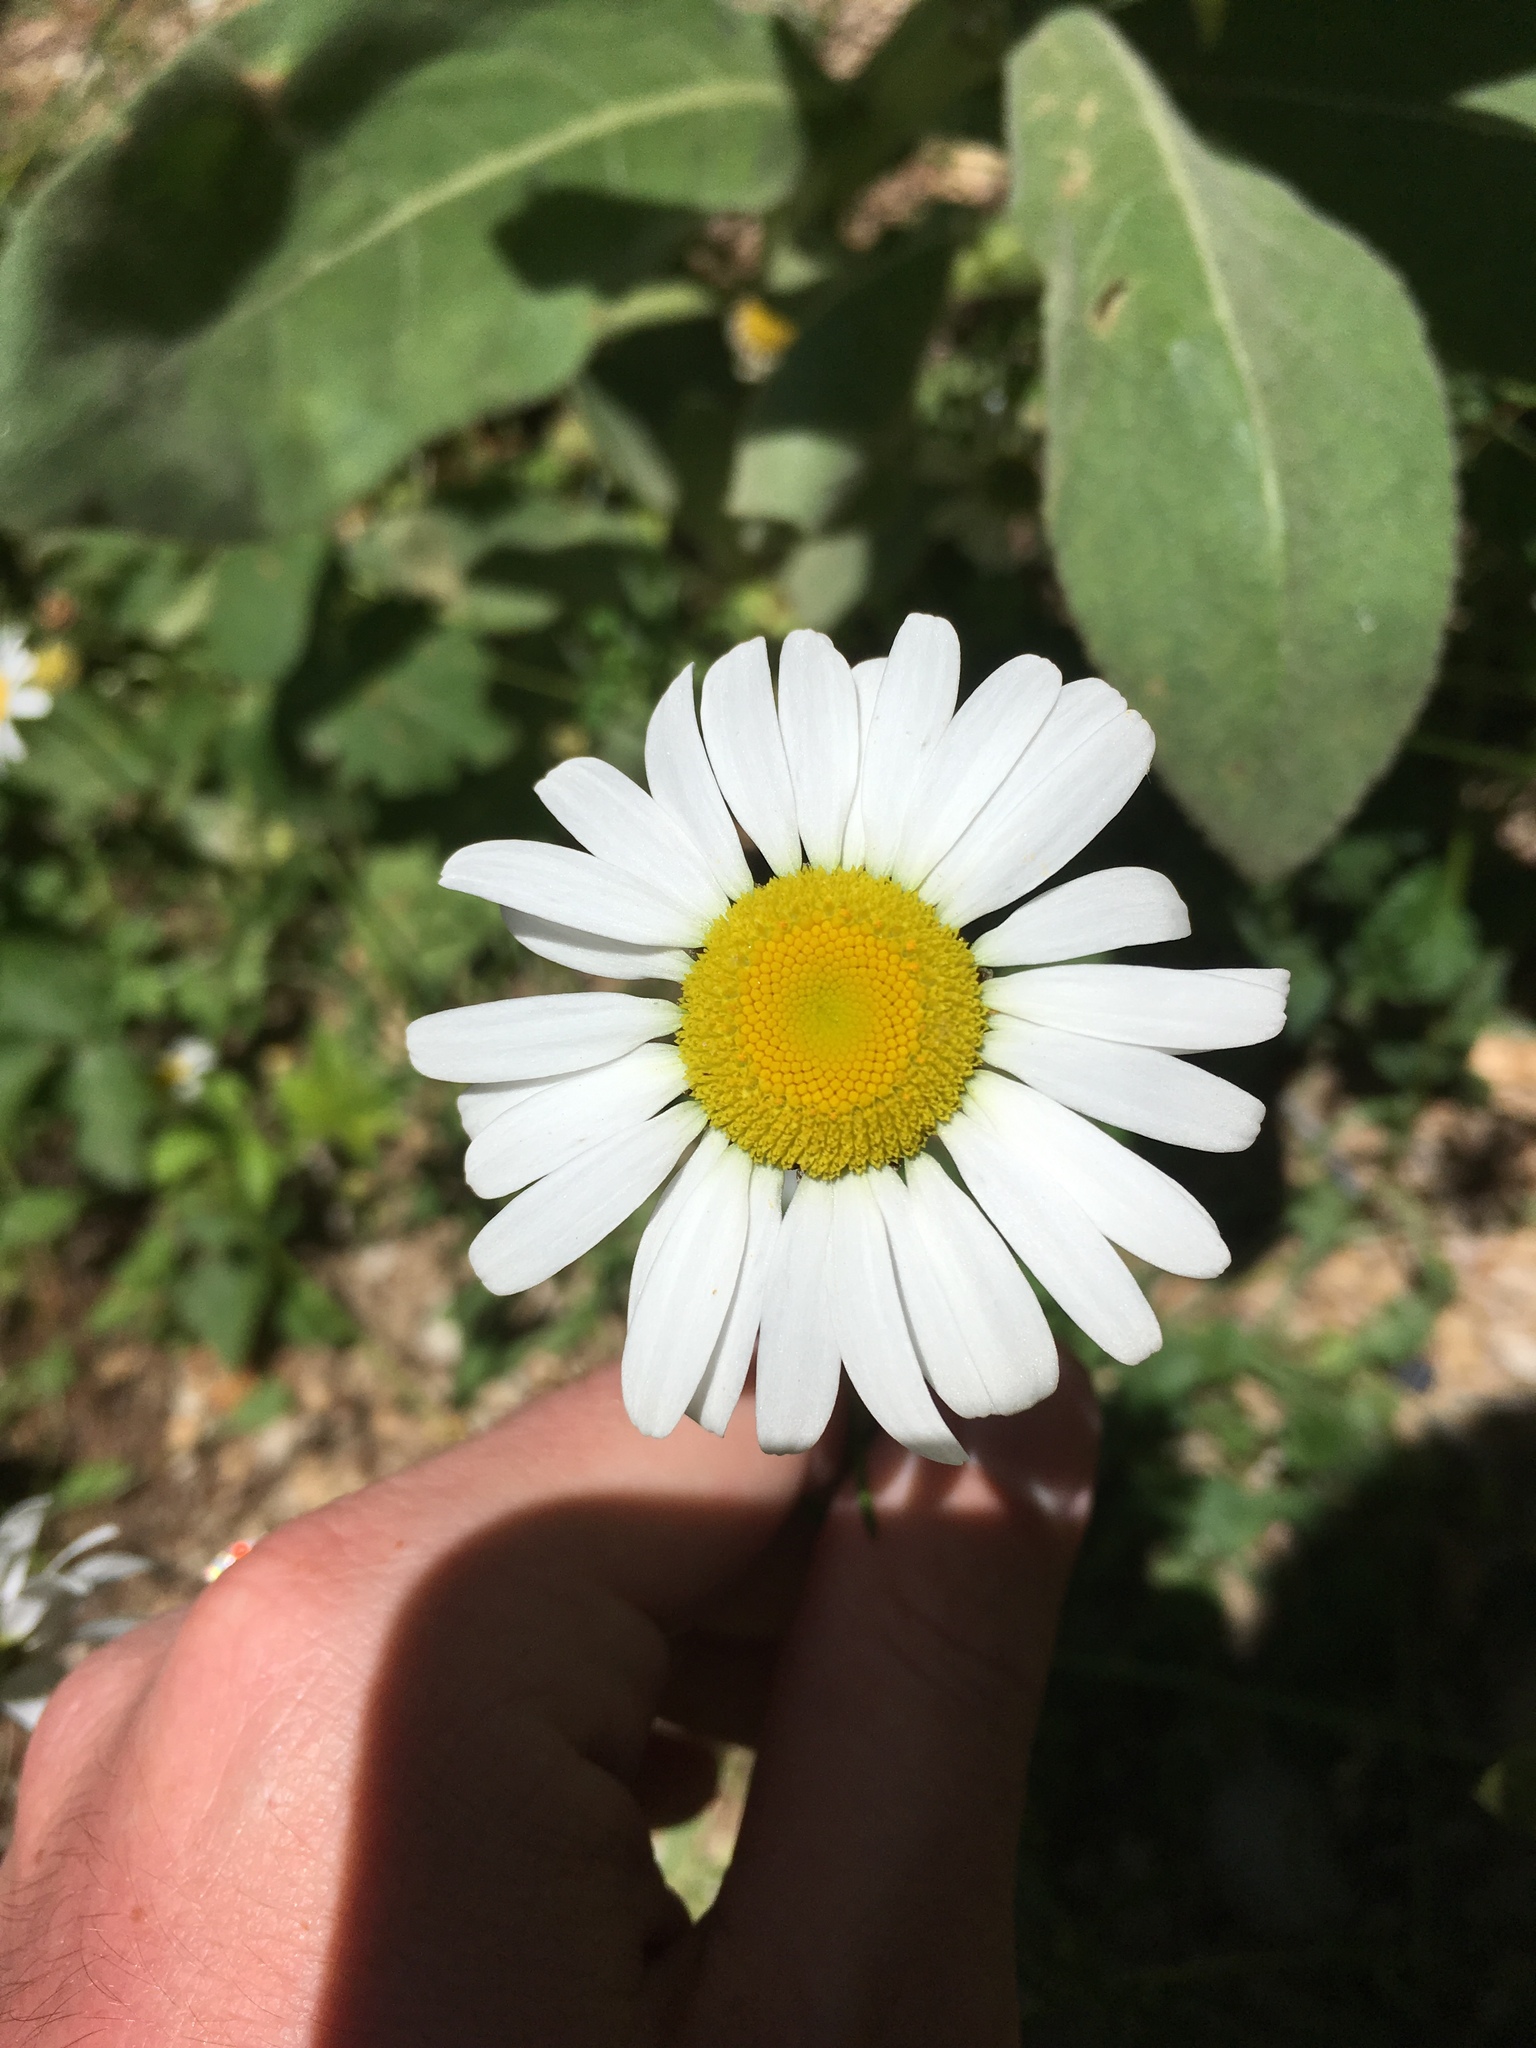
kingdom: Plantae
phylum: Tracheophyta
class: Magnoliopsida
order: Asterales
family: Asteraceae
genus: Leucanthemum
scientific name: Leucanthemum vulgare
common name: Oxeye daisy
